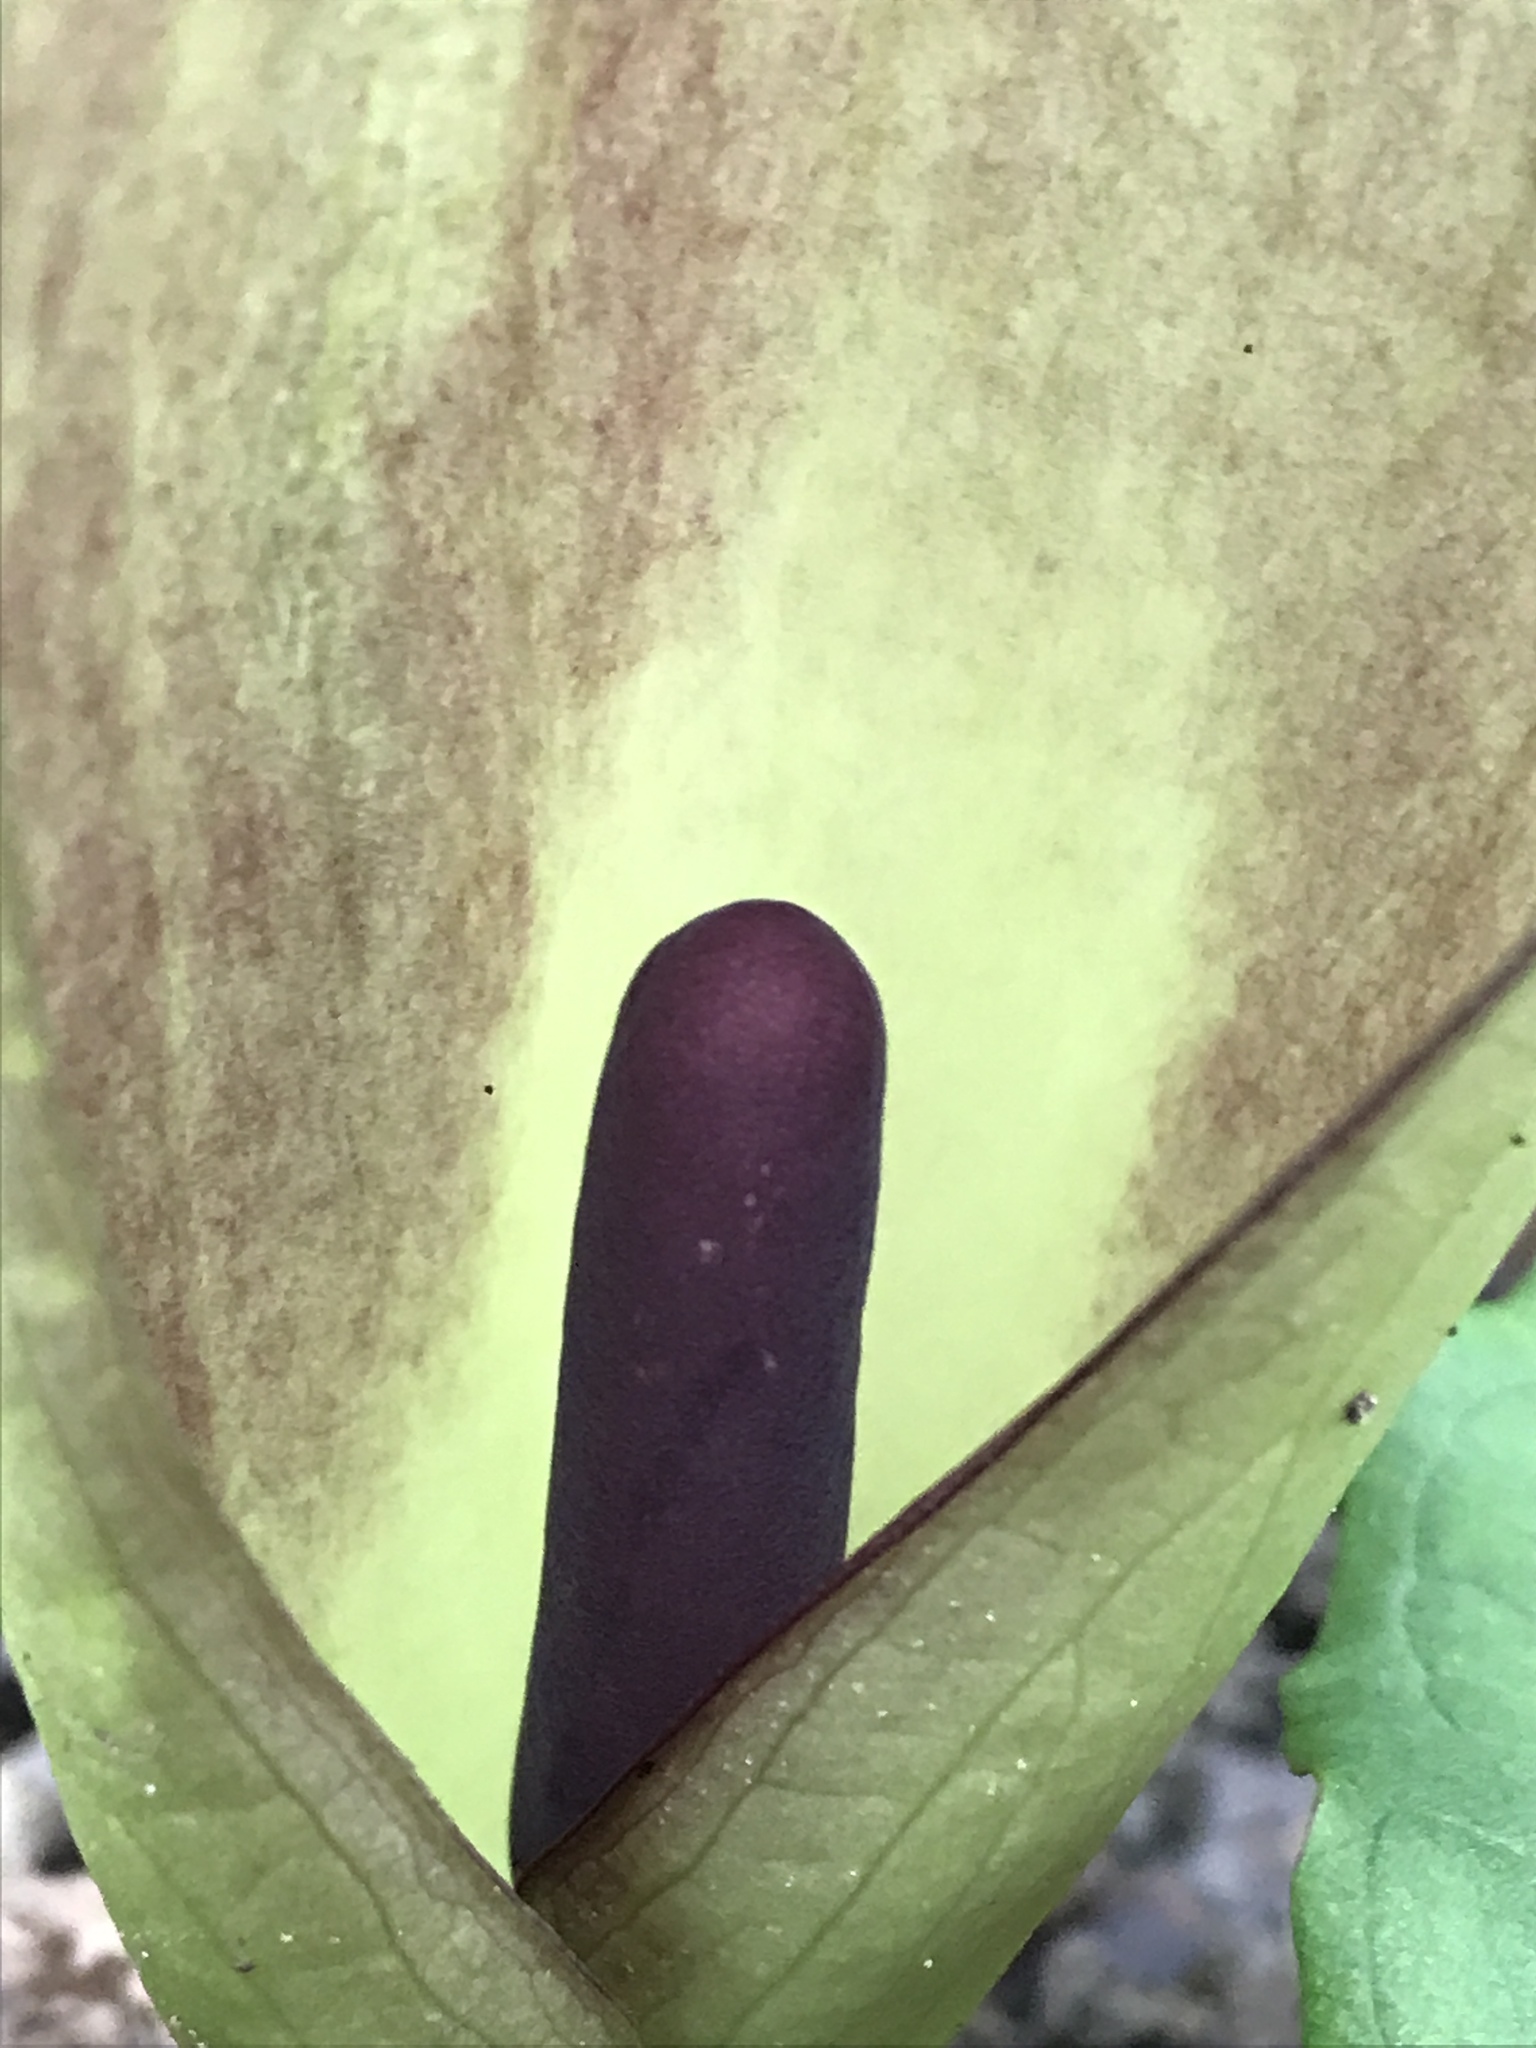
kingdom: Plantae
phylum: Tracheophyta
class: Liliopsida
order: Alismatales
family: Araceae
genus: Arum
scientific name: Arum maculatum
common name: Lords-and-ladies
